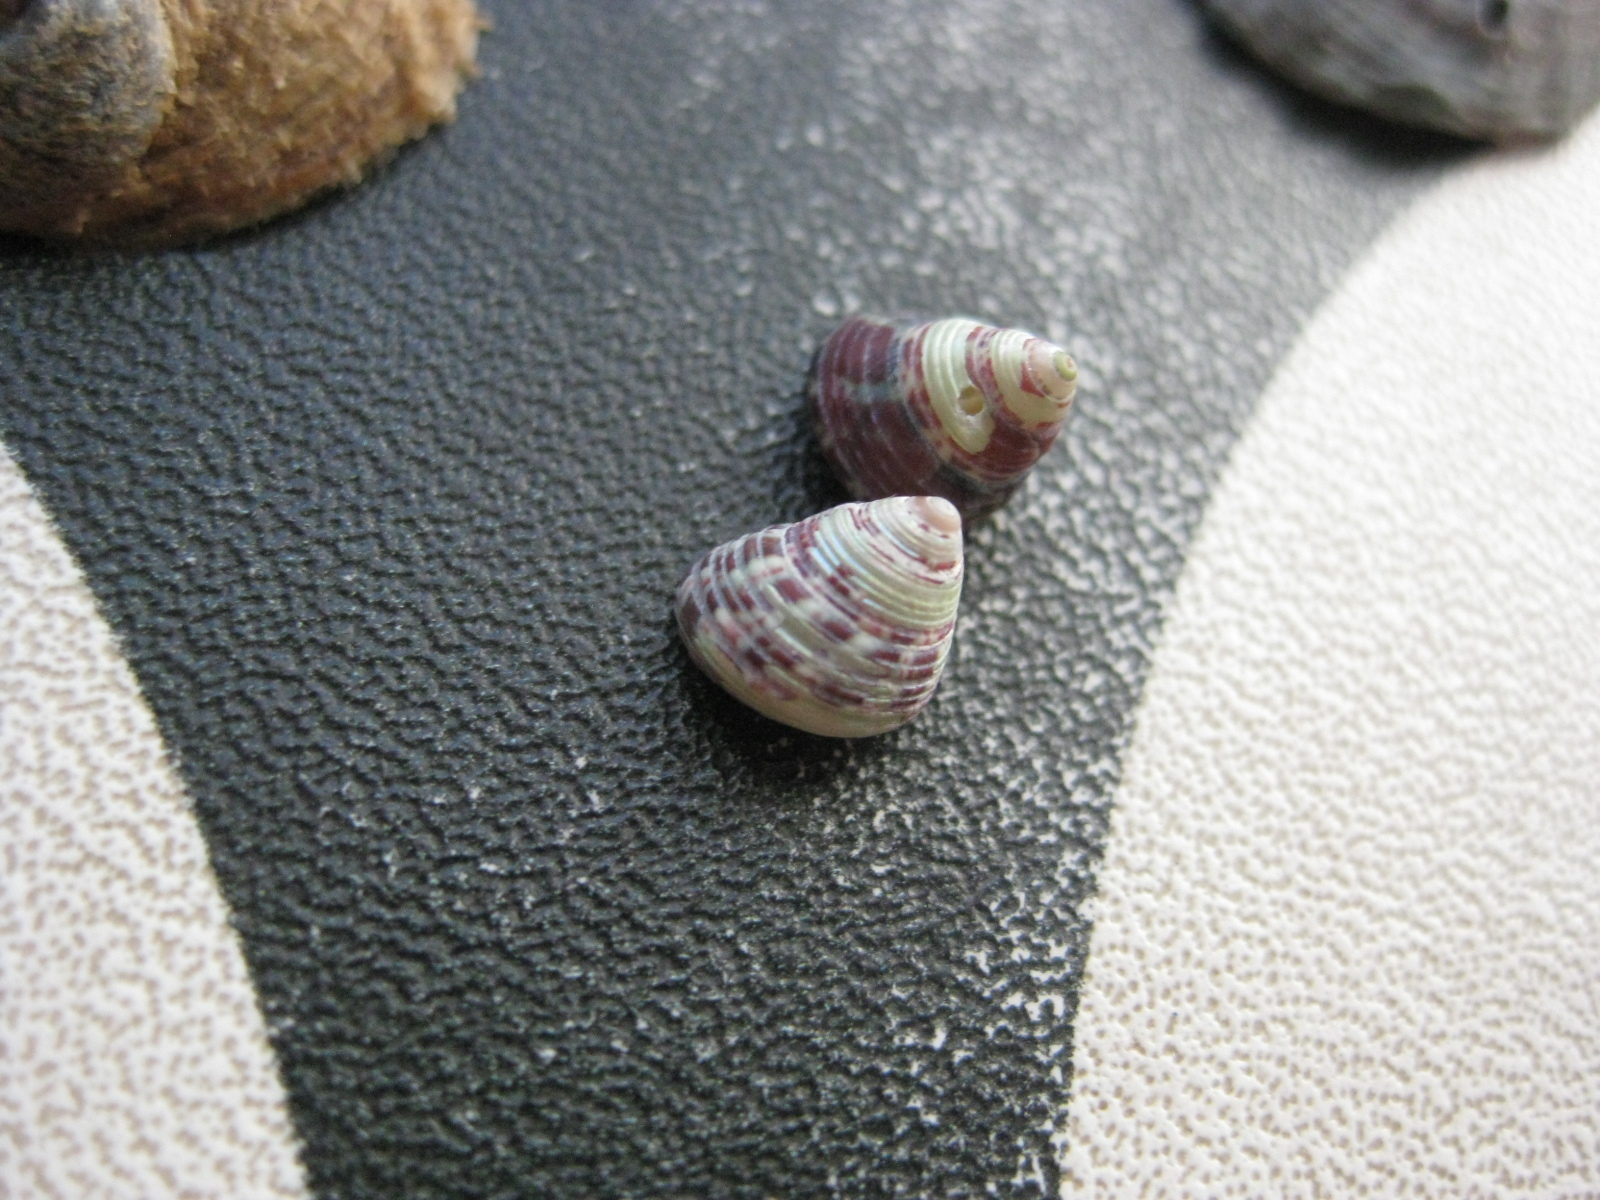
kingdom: Animalia
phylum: Mollusca
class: Gastropoda
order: Trochida
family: Trochidae
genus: Micrelenchus
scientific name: Micrelenchus sanguineus
